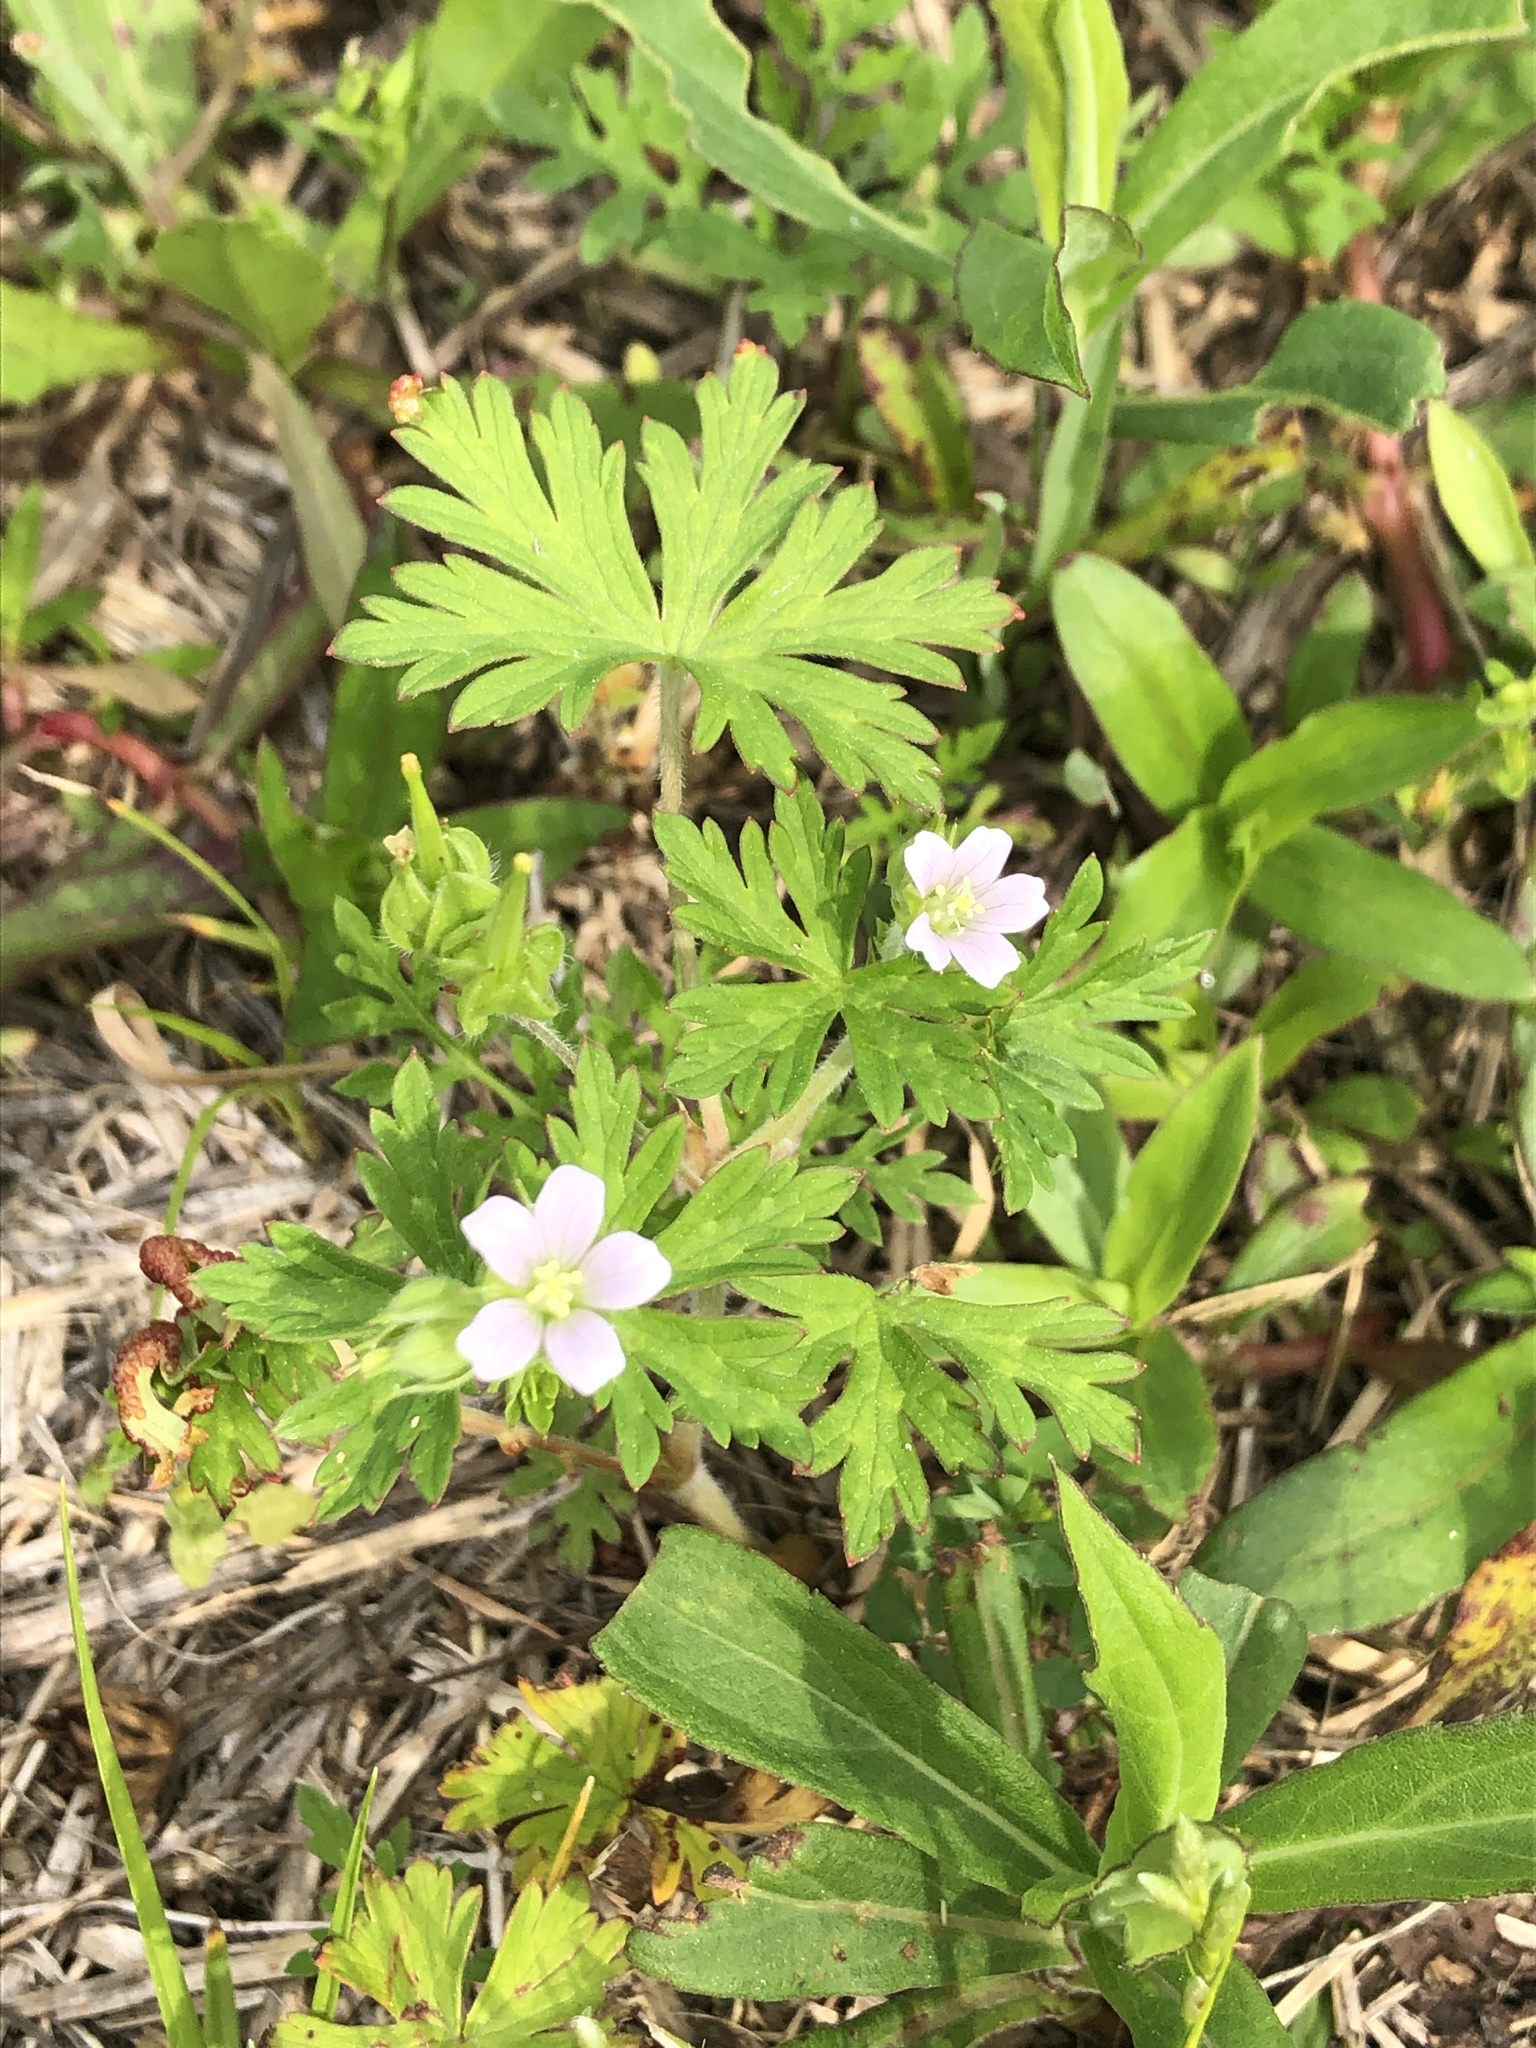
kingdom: Plantae
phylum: Tracheophyta
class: Magnoliopsida
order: Geraniales
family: Geraniaceae
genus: Geranium
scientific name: Geranium carolinianum
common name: Carolina crane's-bill
